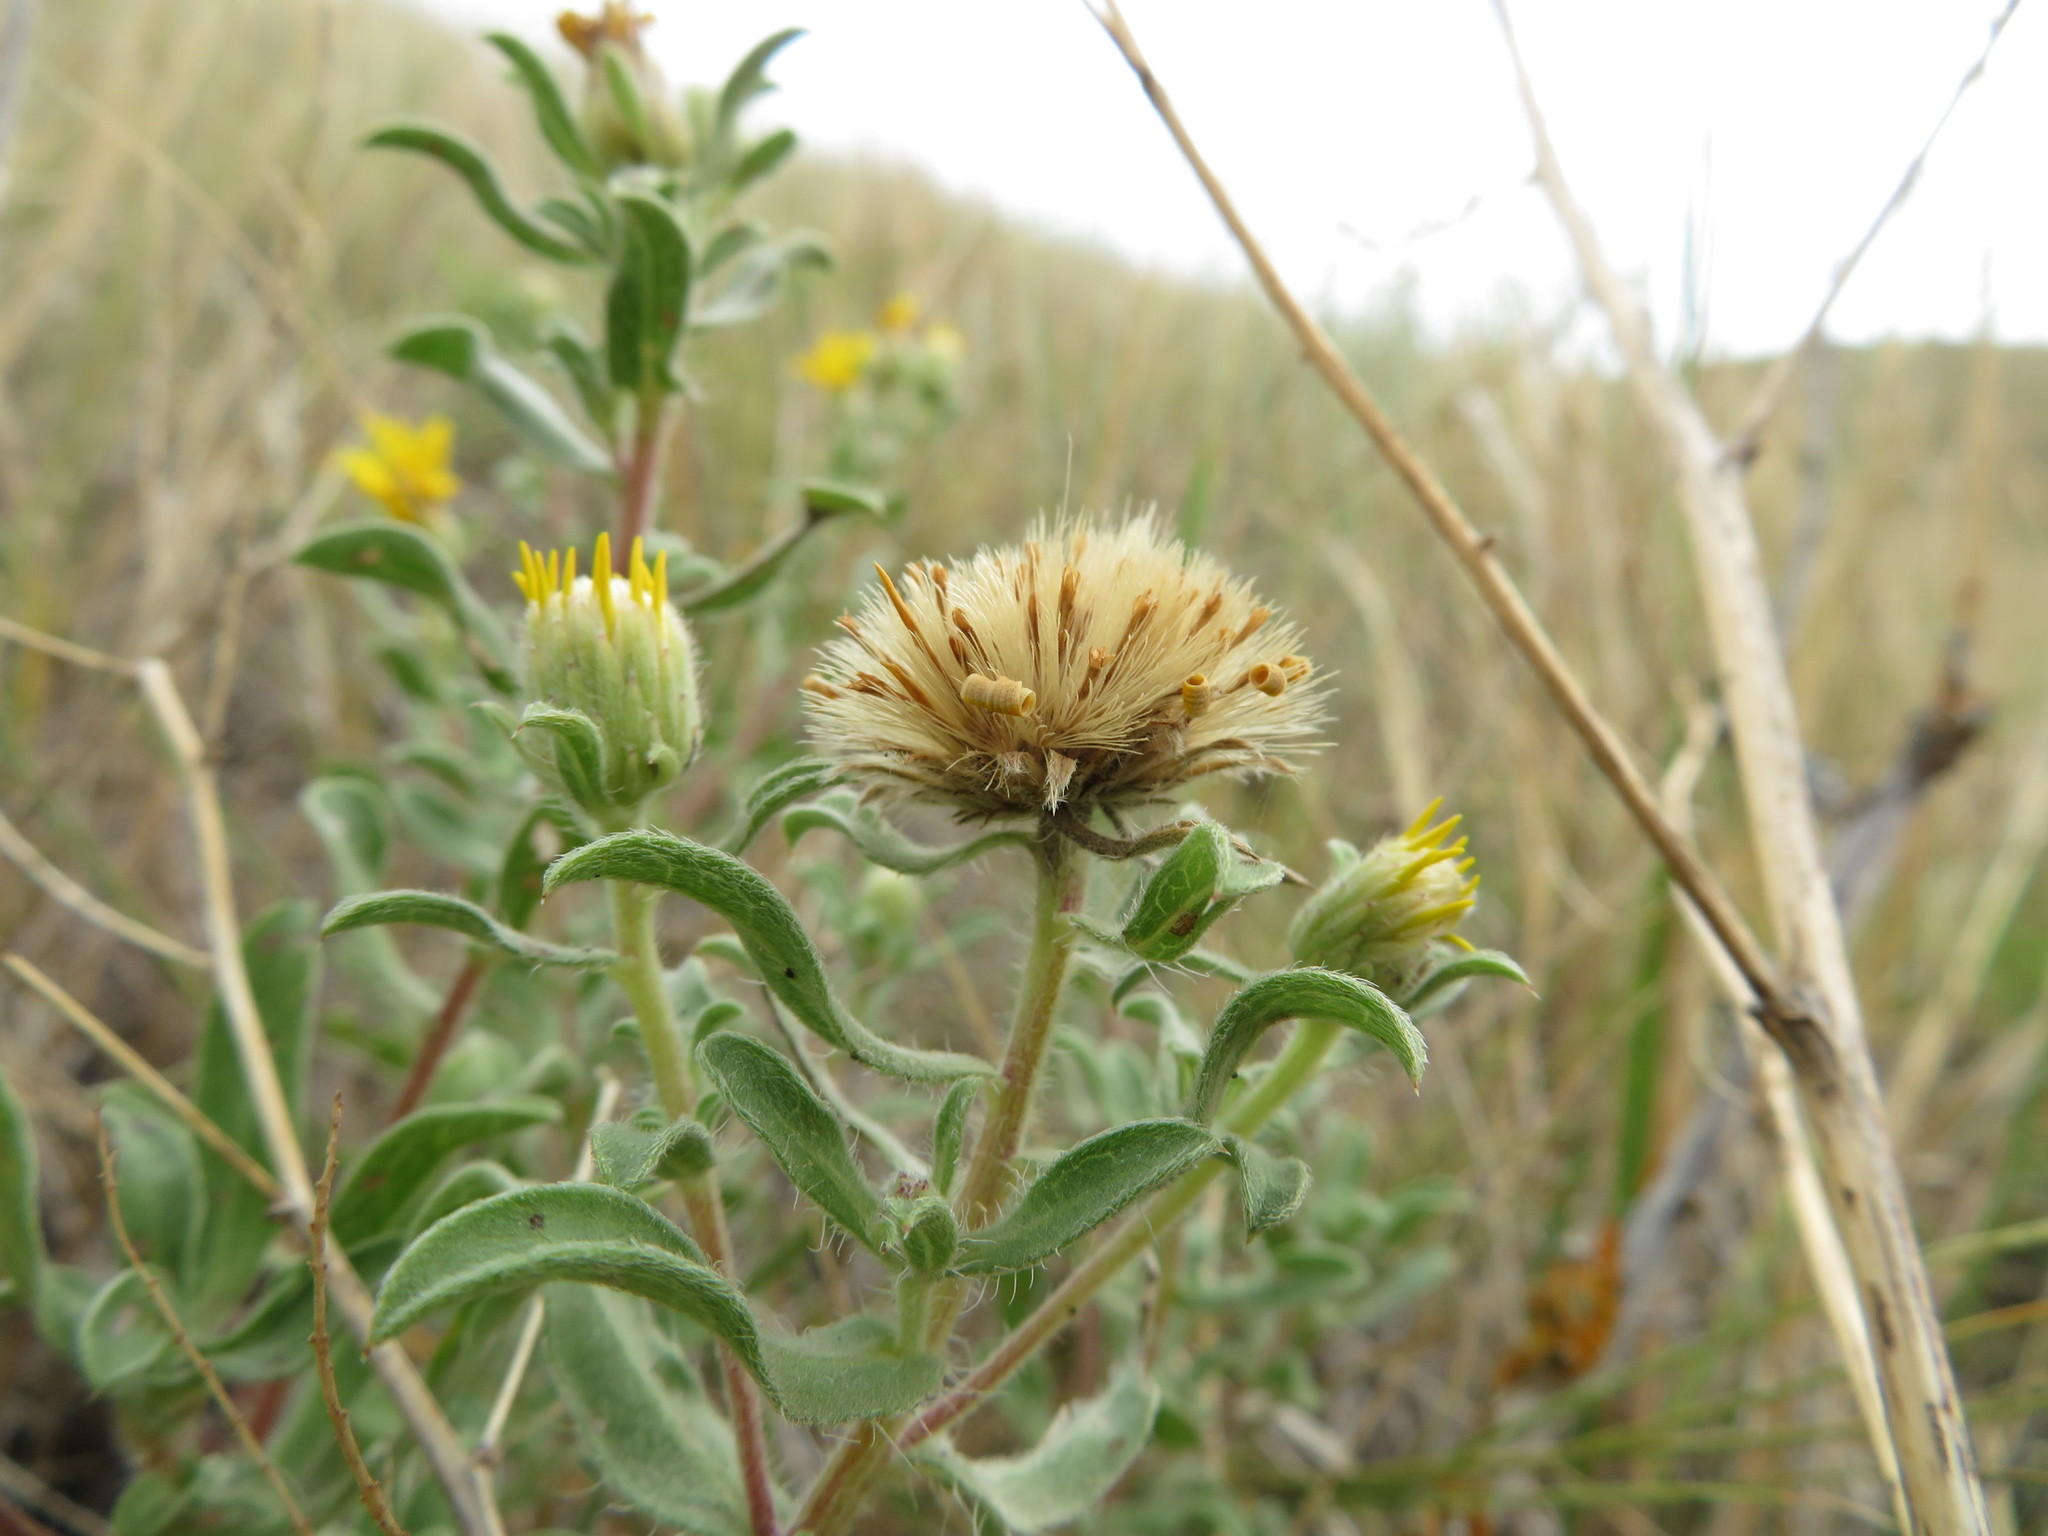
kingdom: Plantae
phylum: Tracheophyta
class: Magnoliopsida
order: Asterales
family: Asteraceae
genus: Heterotheca
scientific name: Heterotheca villosa
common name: Hairy false goldenaster
